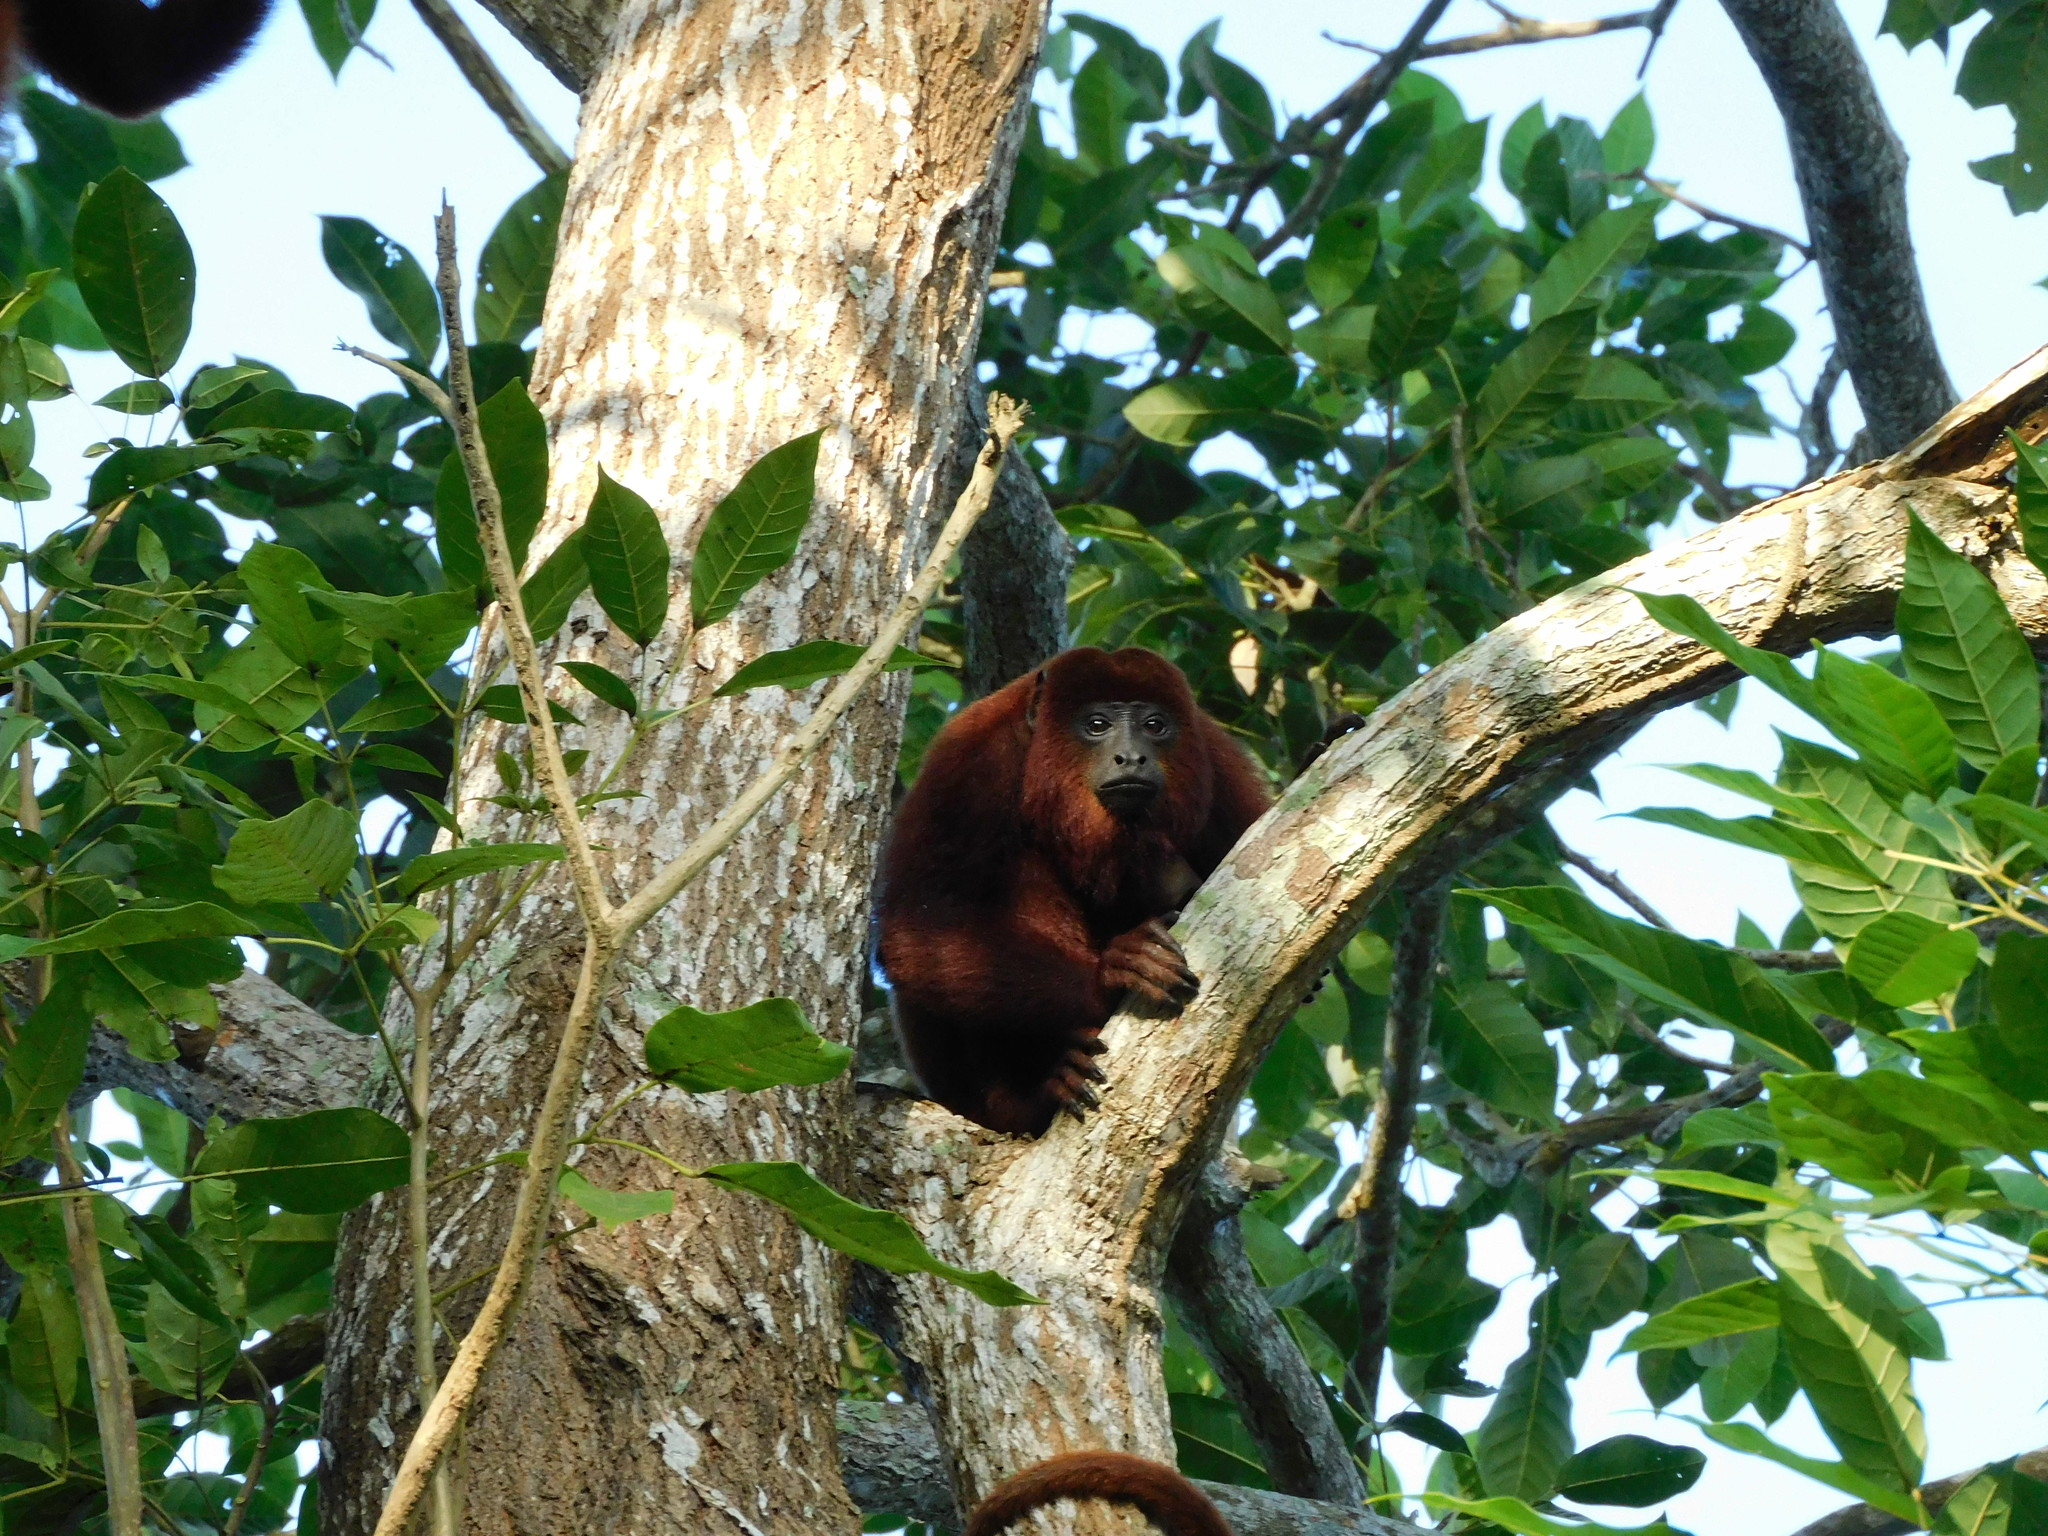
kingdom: Animalia
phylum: Chordata
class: Mammalia
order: Primates
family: Atelidae
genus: Alouatta
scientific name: Alouatta seniculus
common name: Venezuelan red howler
